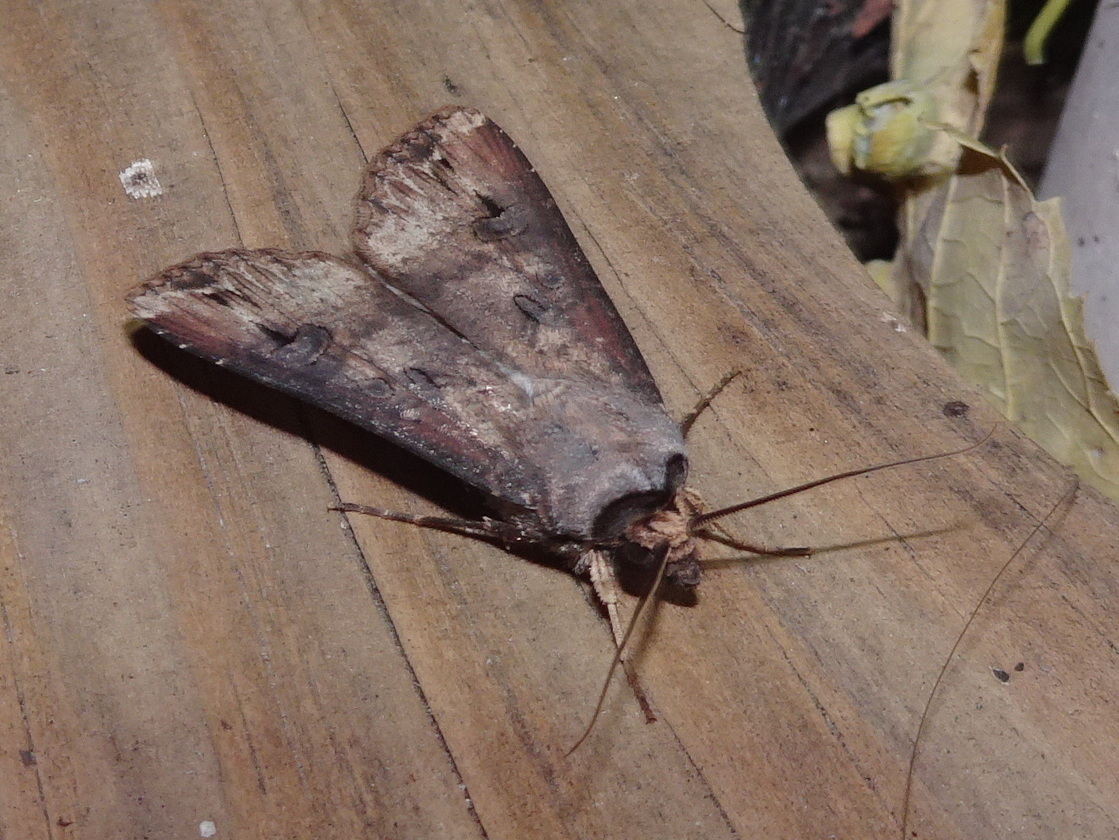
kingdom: Animalia
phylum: Arthropoda
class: Insecta
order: Lepidoptera
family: Noctuidae
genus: Agrotis
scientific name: Agrotis ipsilon
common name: Dark sword-grass
